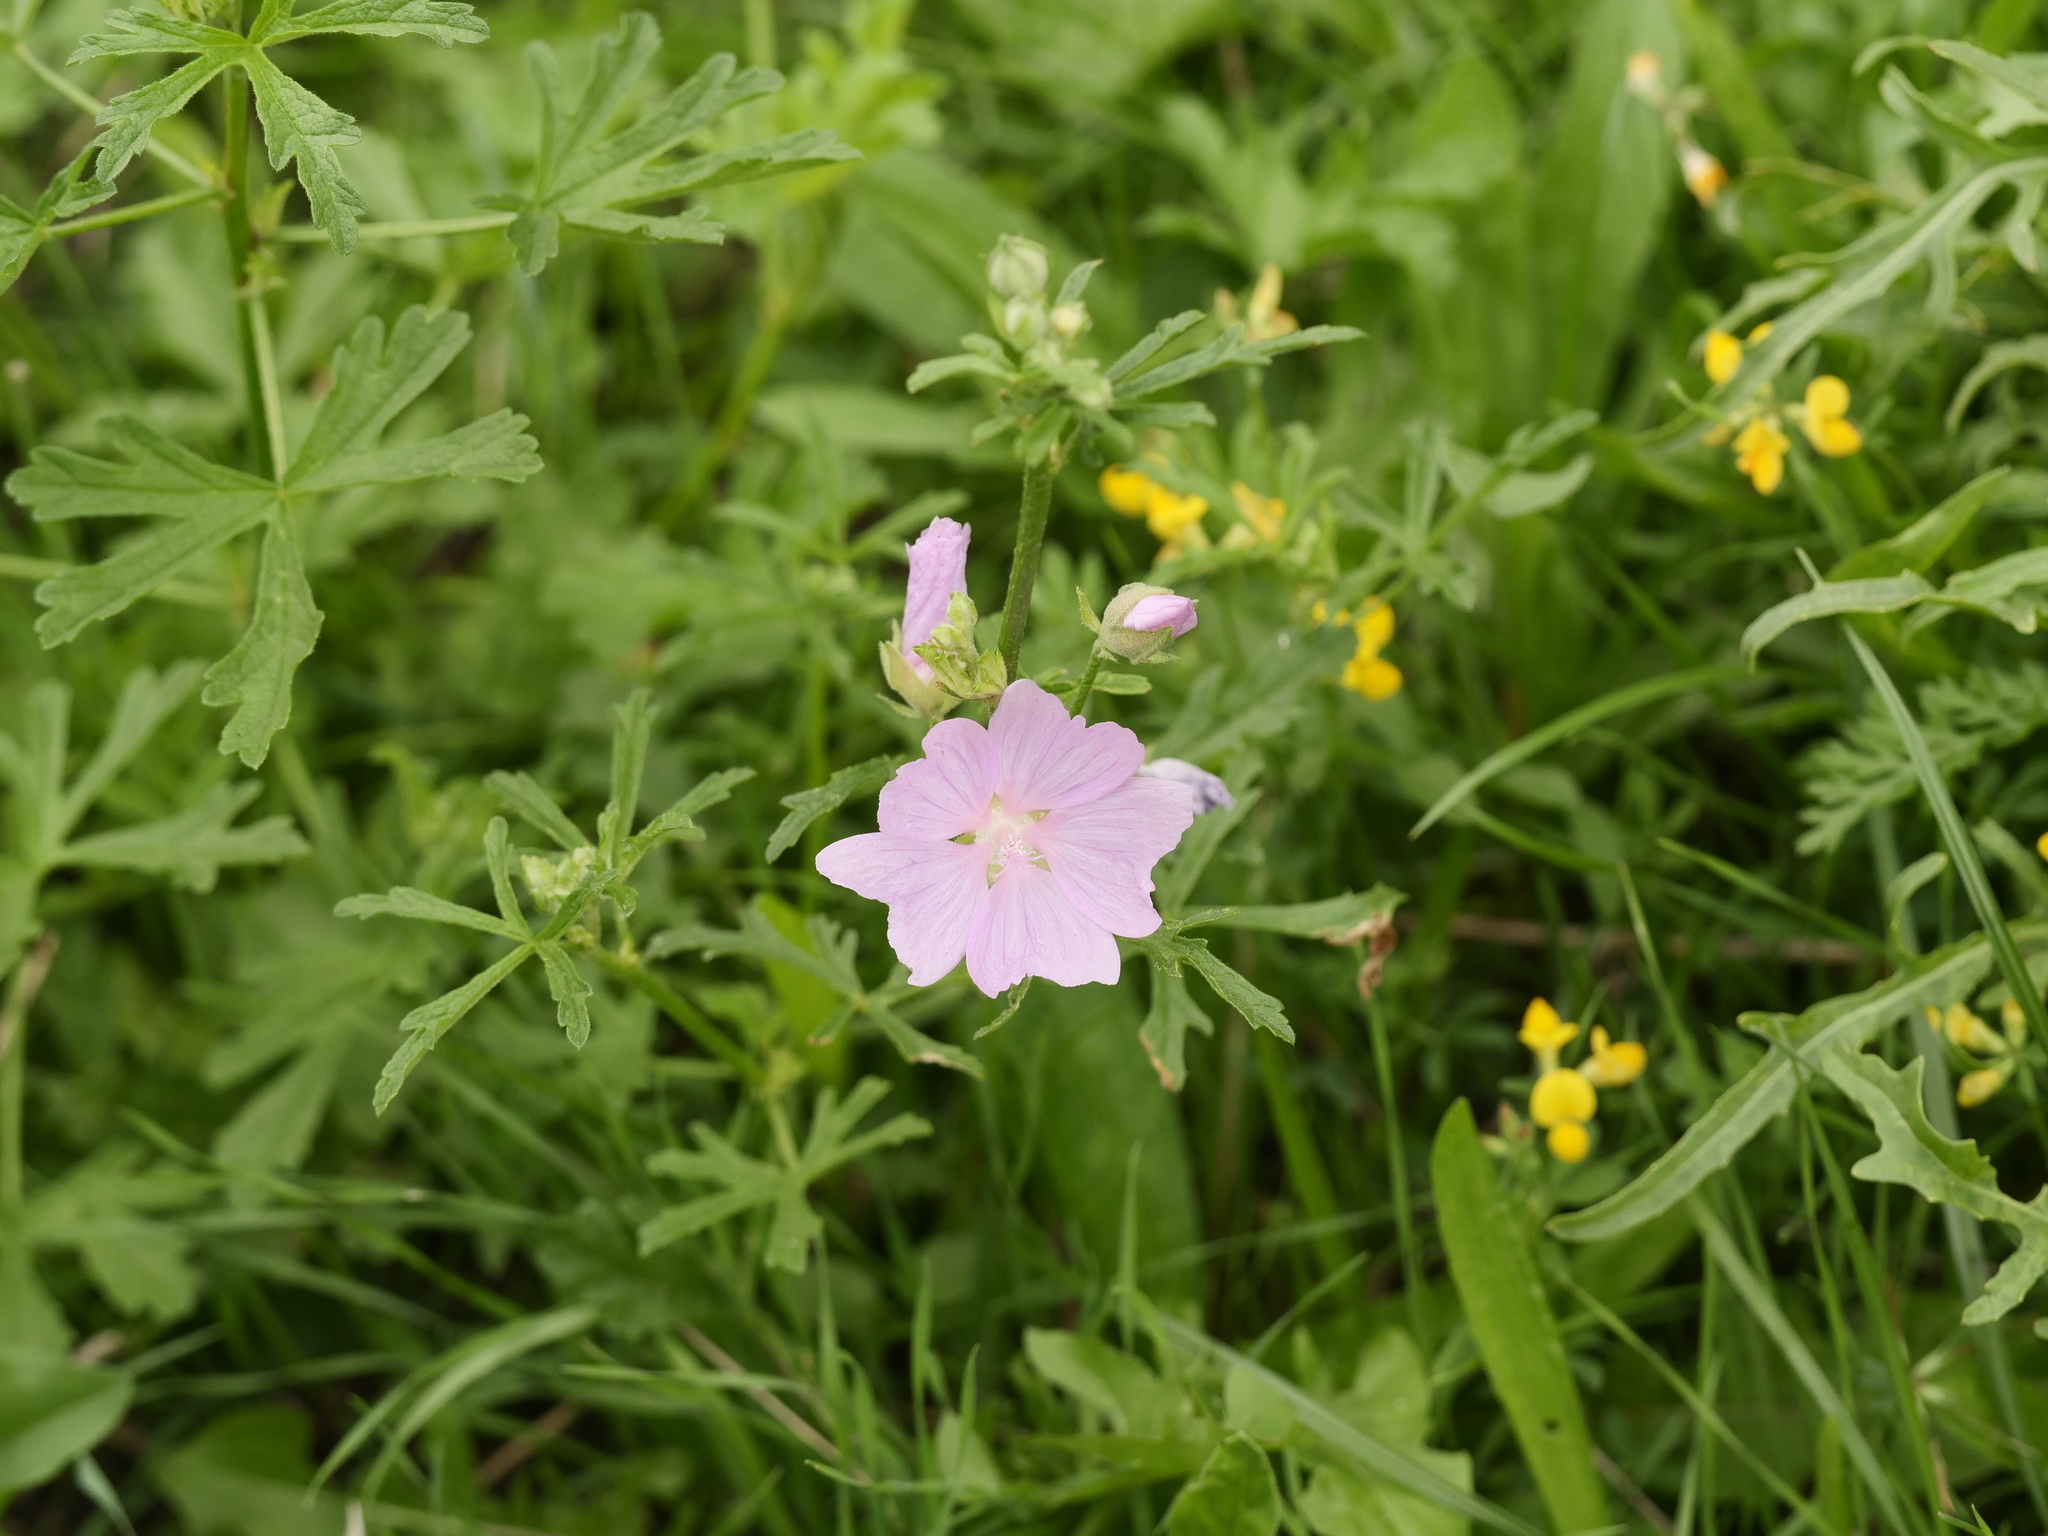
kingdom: Plantae
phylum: Tracheophyta
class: Magnoliopsida
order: Malvales
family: Malvaceae
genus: Malva
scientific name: Malva alcea
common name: Greater musk-mallow
